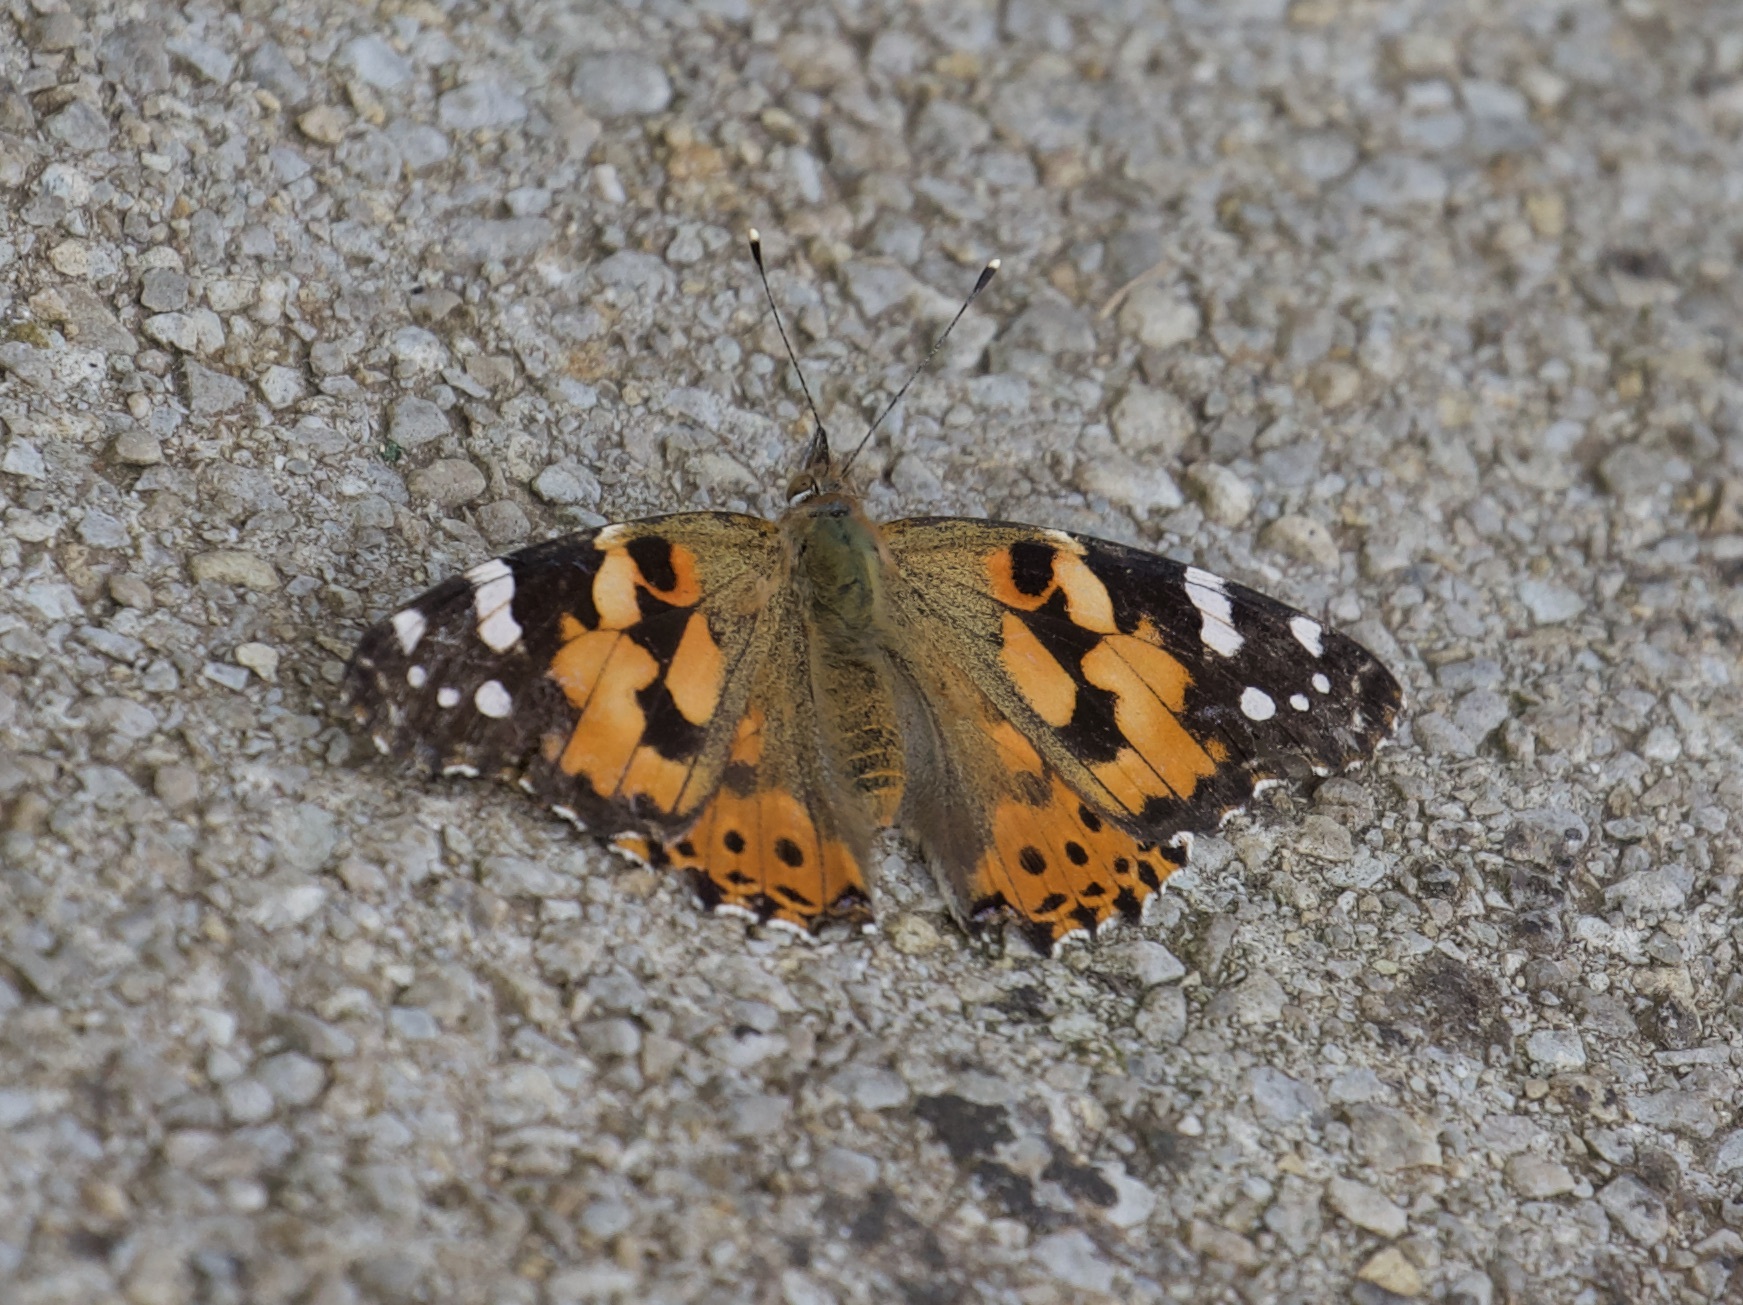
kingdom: Animalia
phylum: Arthropoda
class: Insecta
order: Lepidoptera
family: Nymphalidae
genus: Vanessa
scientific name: Vanessa cardui
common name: Painted lady
